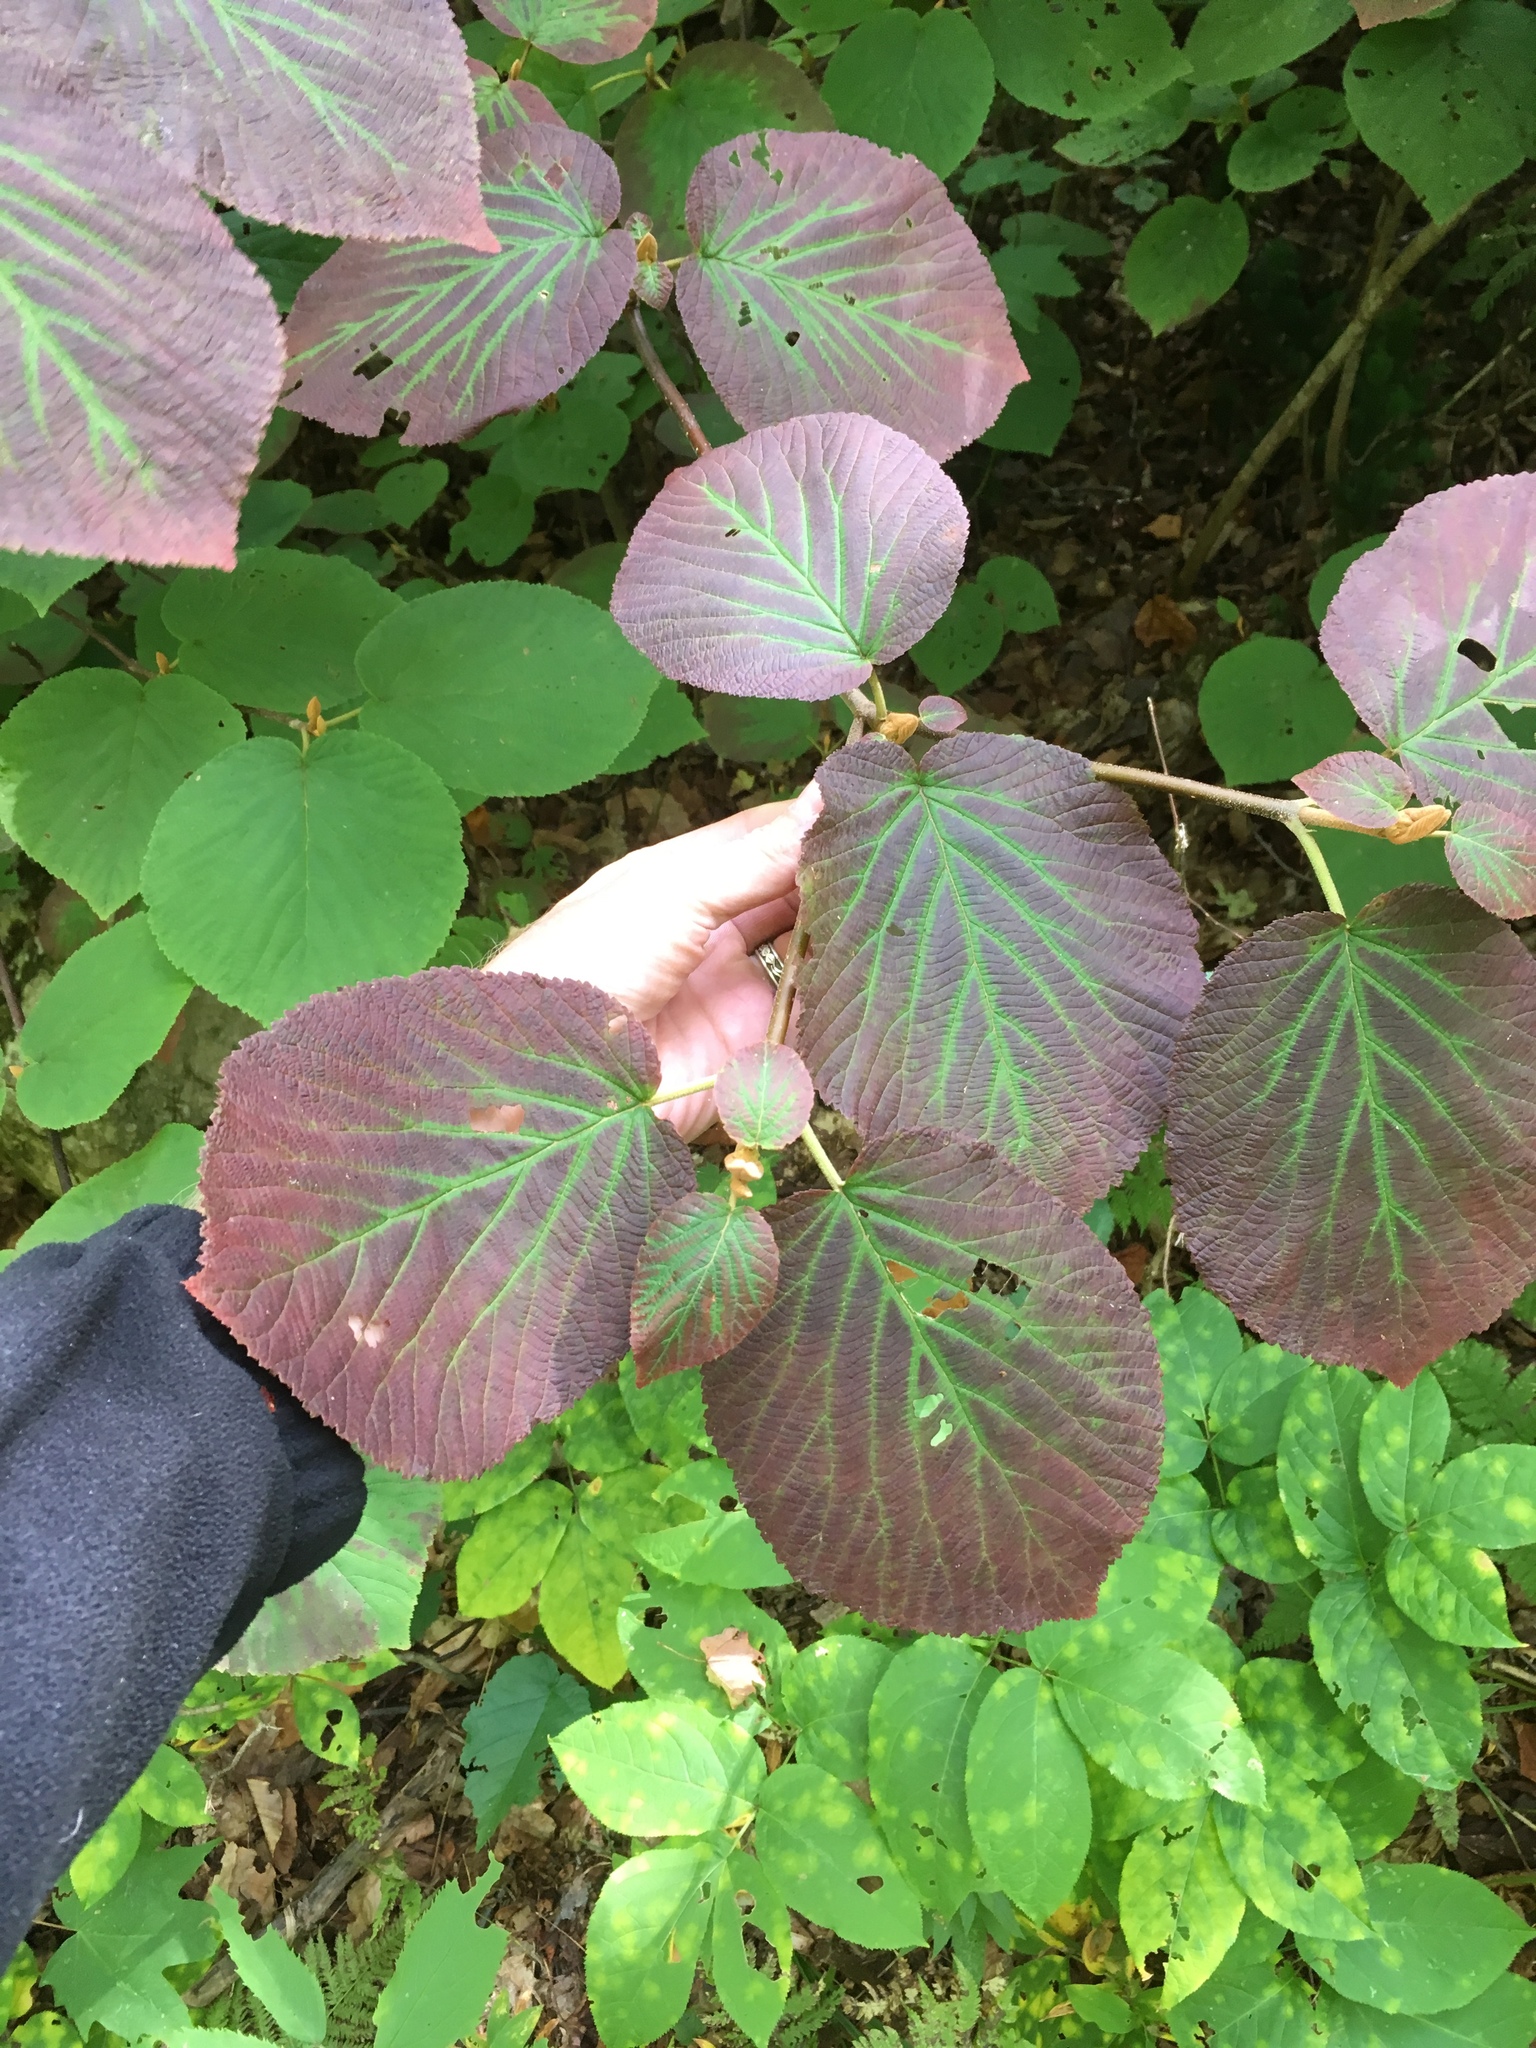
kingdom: Plantae
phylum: Tracheophyta
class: Magnoliopsida
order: Dipsacales
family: Viburnaceae
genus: Viburnum
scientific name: Viburnum lantanoides
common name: Hobblebush
